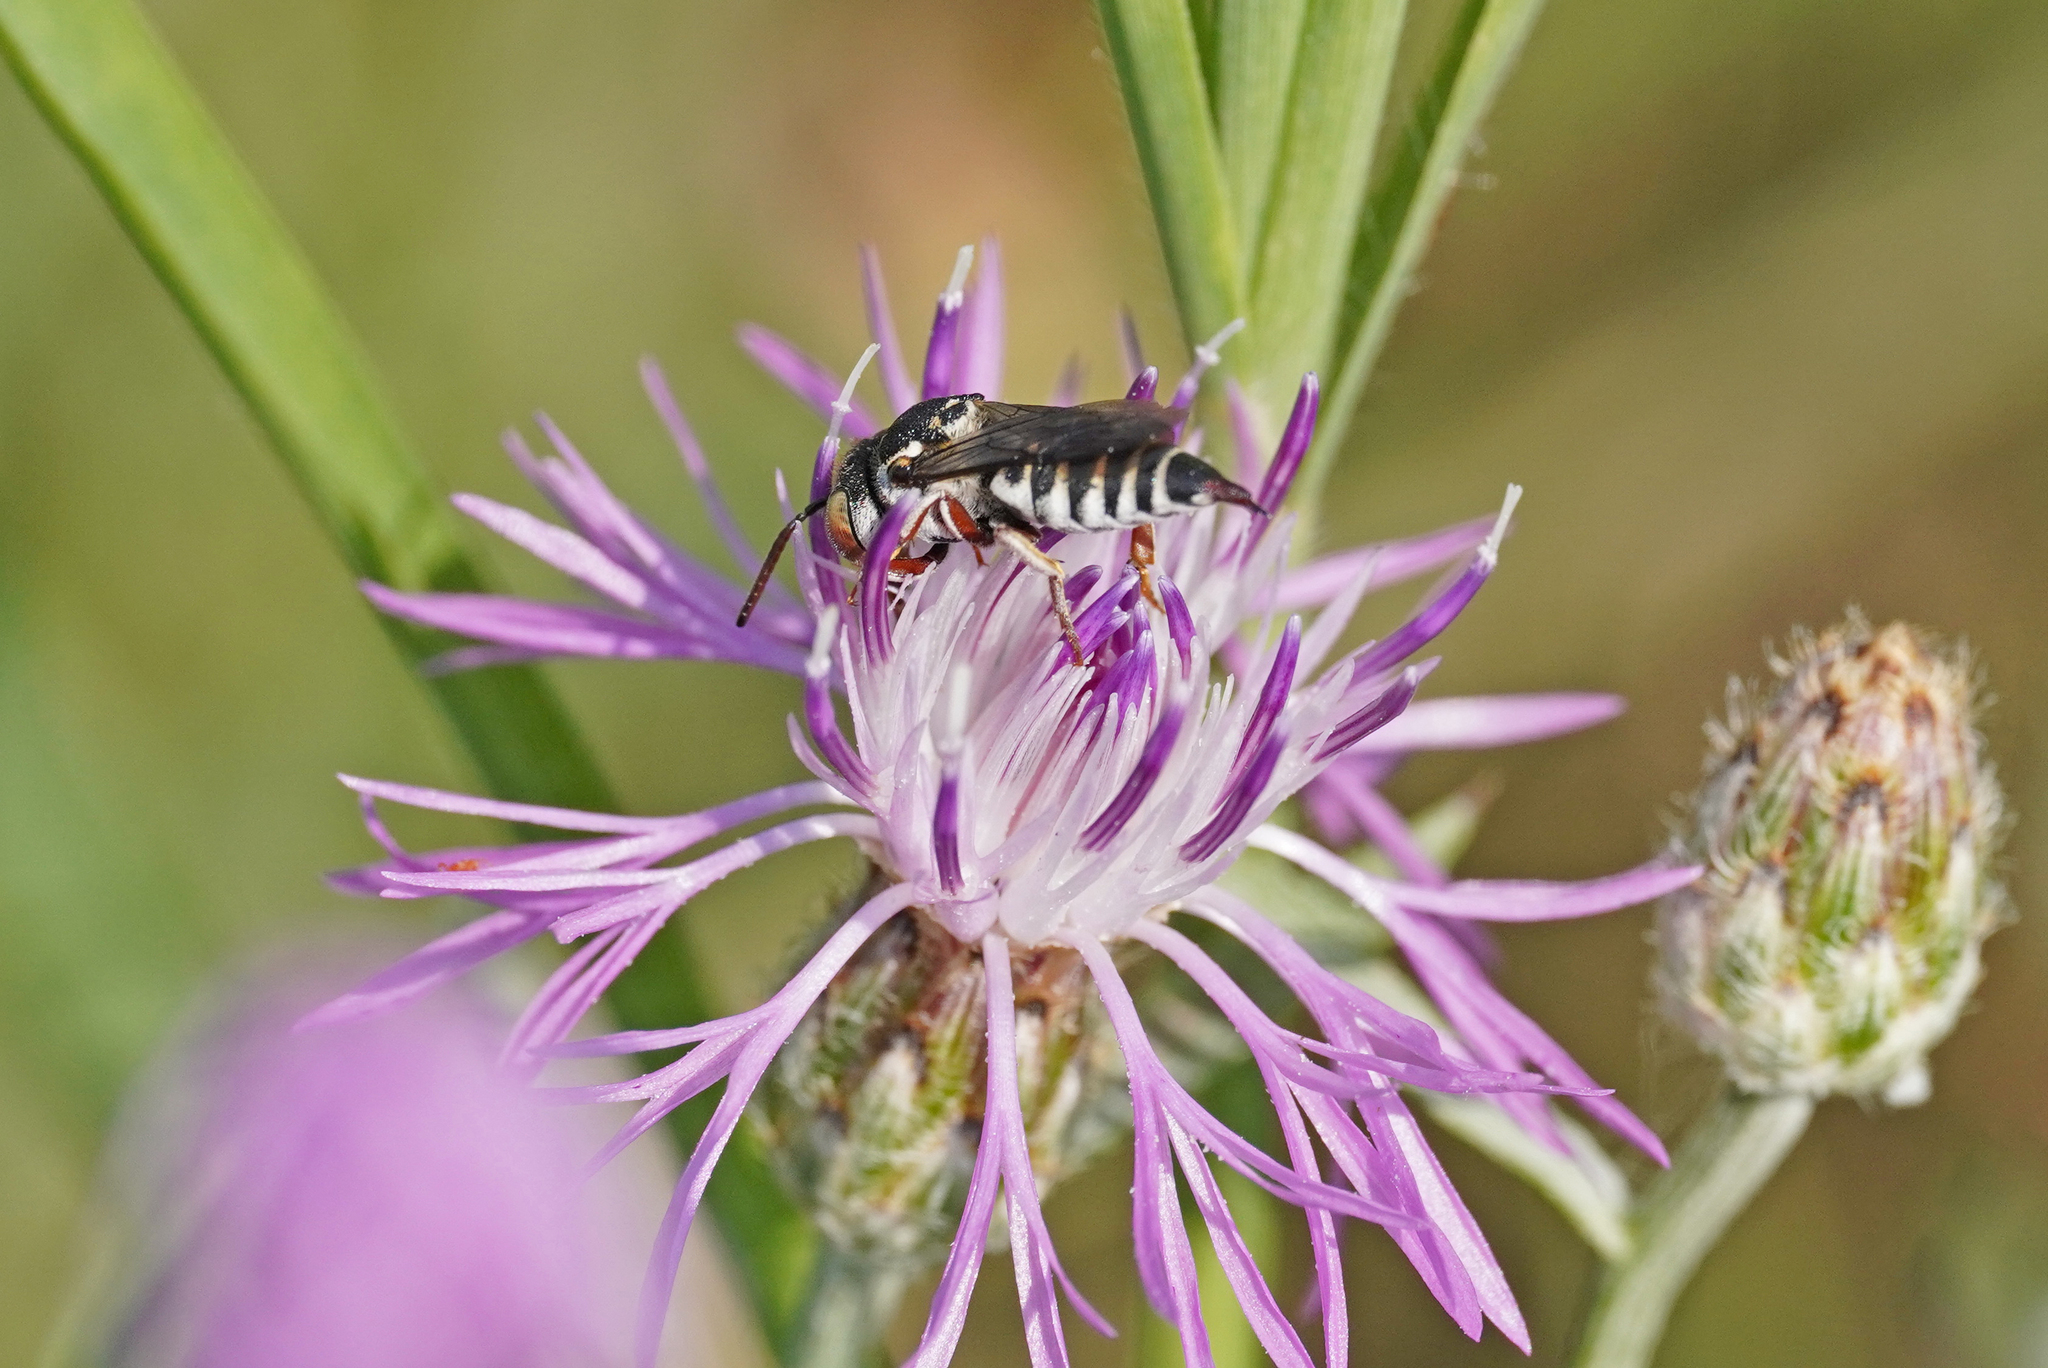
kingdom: Animalia
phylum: Arthropoda
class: Insecta
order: Hymenoptera
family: Megachilidae
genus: Coelioxys
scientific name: Coelioxys brevis
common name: Red-legged sharp-tail bee
